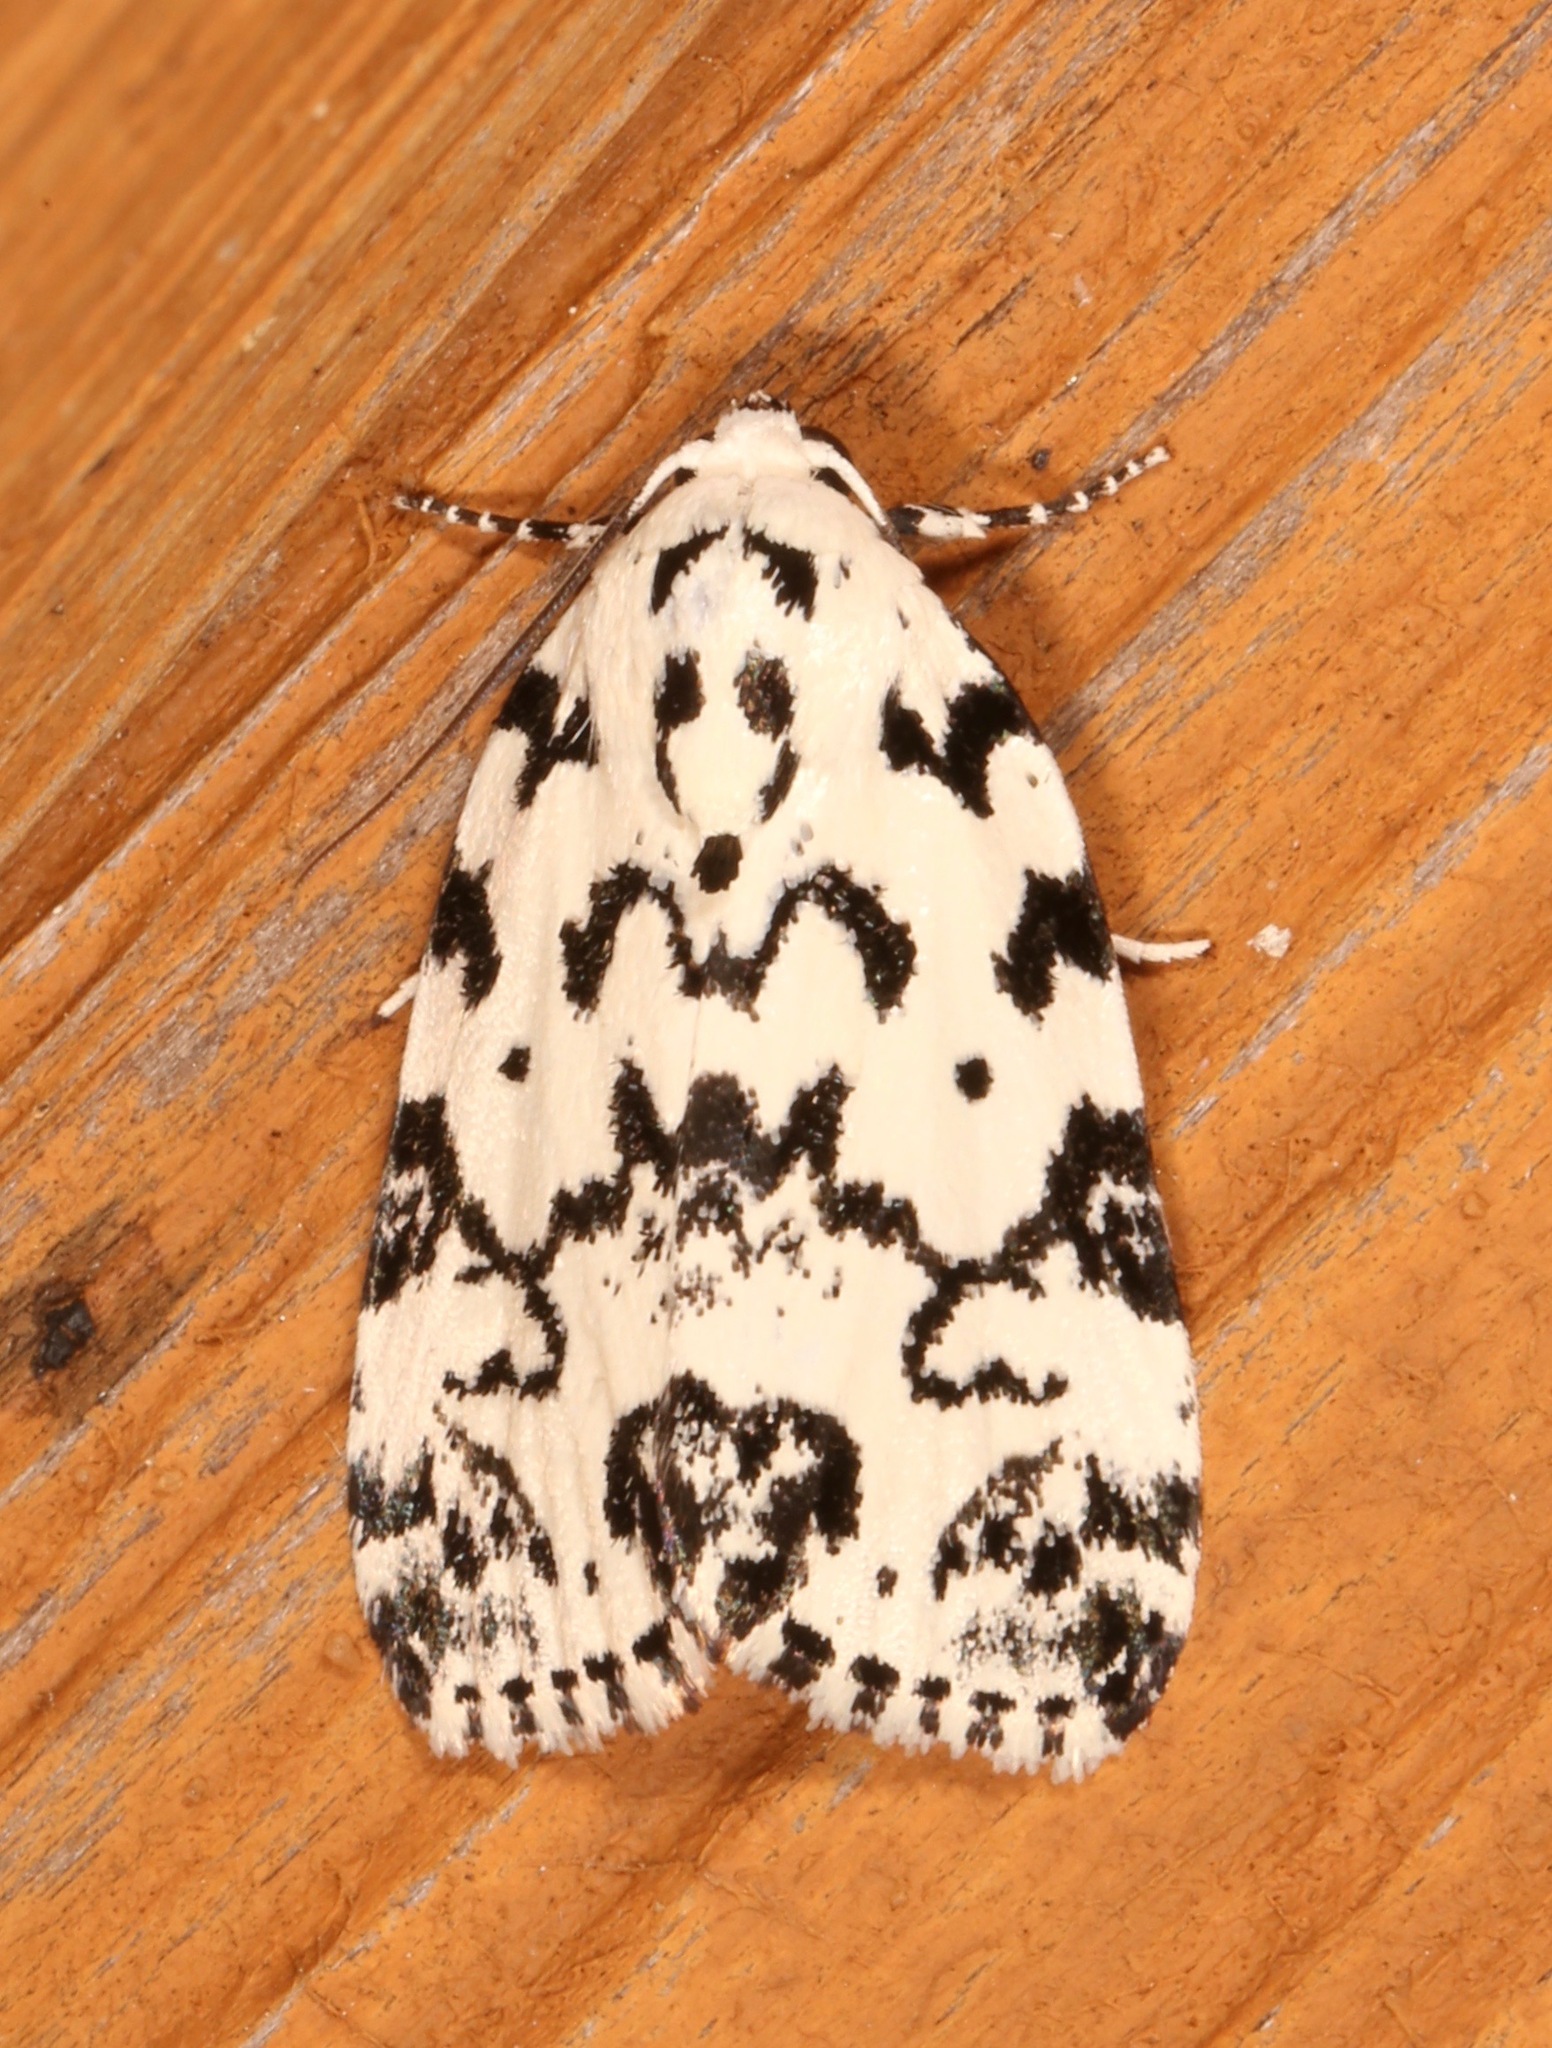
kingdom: Animalia
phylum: Arthropoda
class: Insecta
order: Lepidoptera
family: Noctuidae
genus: Polygrammate
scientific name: Polygrammate hebraeicum
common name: Hebrew moth
